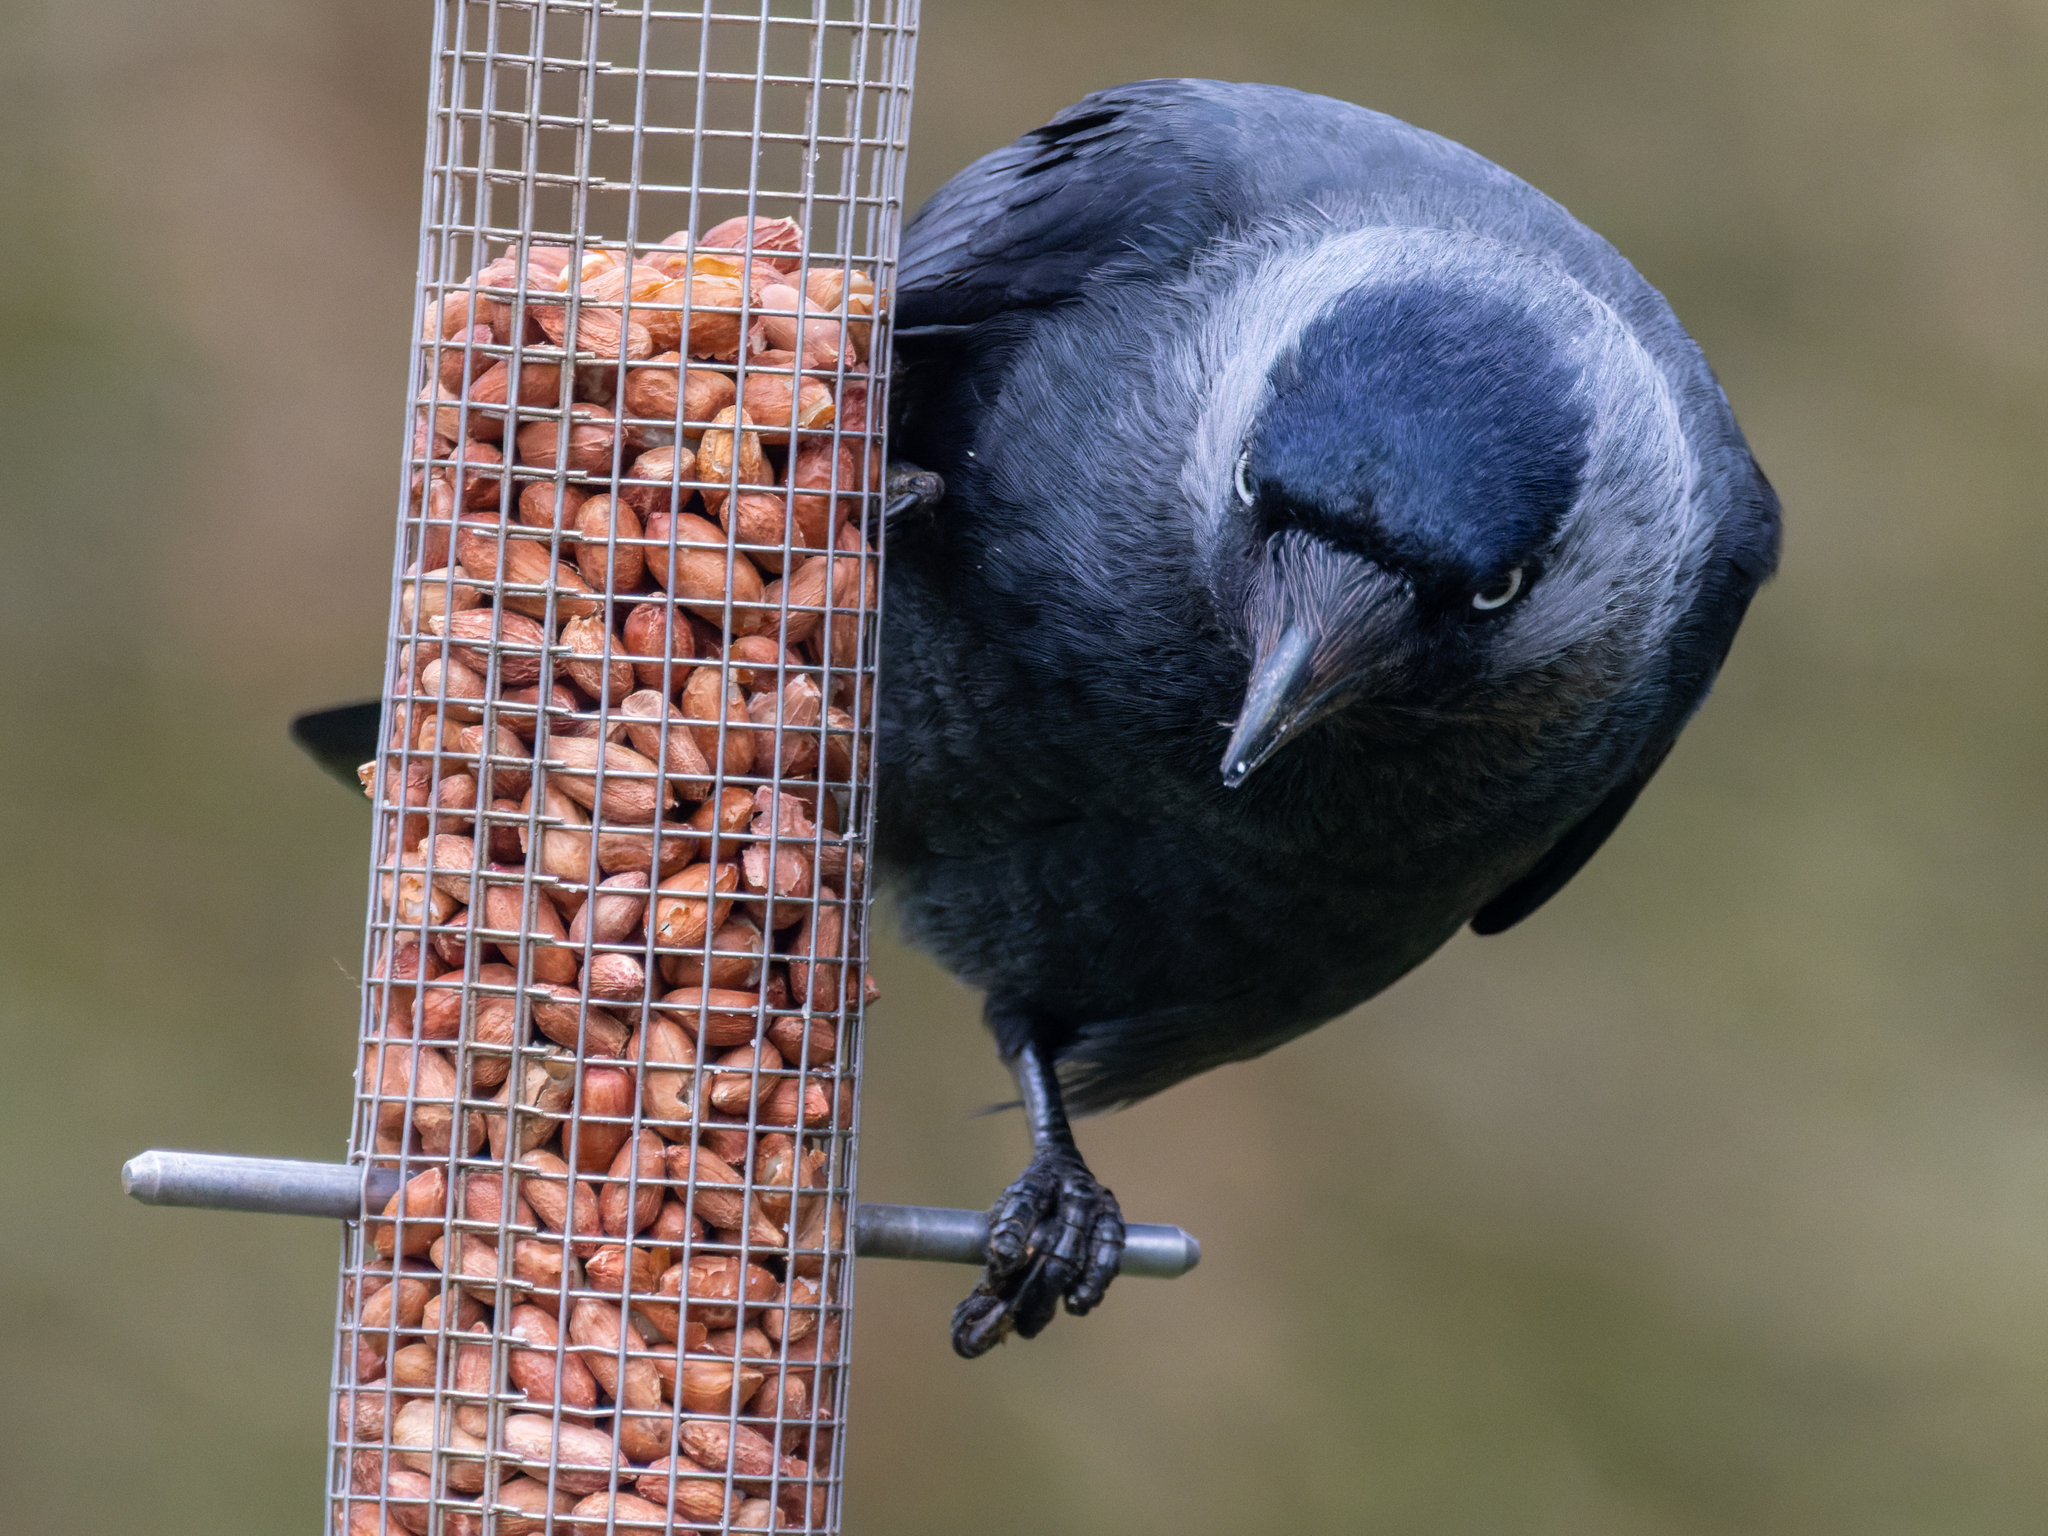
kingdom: Animalia
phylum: Chordata
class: Aves
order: Passeriformes
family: Corvidae
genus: Coloeus
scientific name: Coloeus monedula
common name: Western jackdaw
